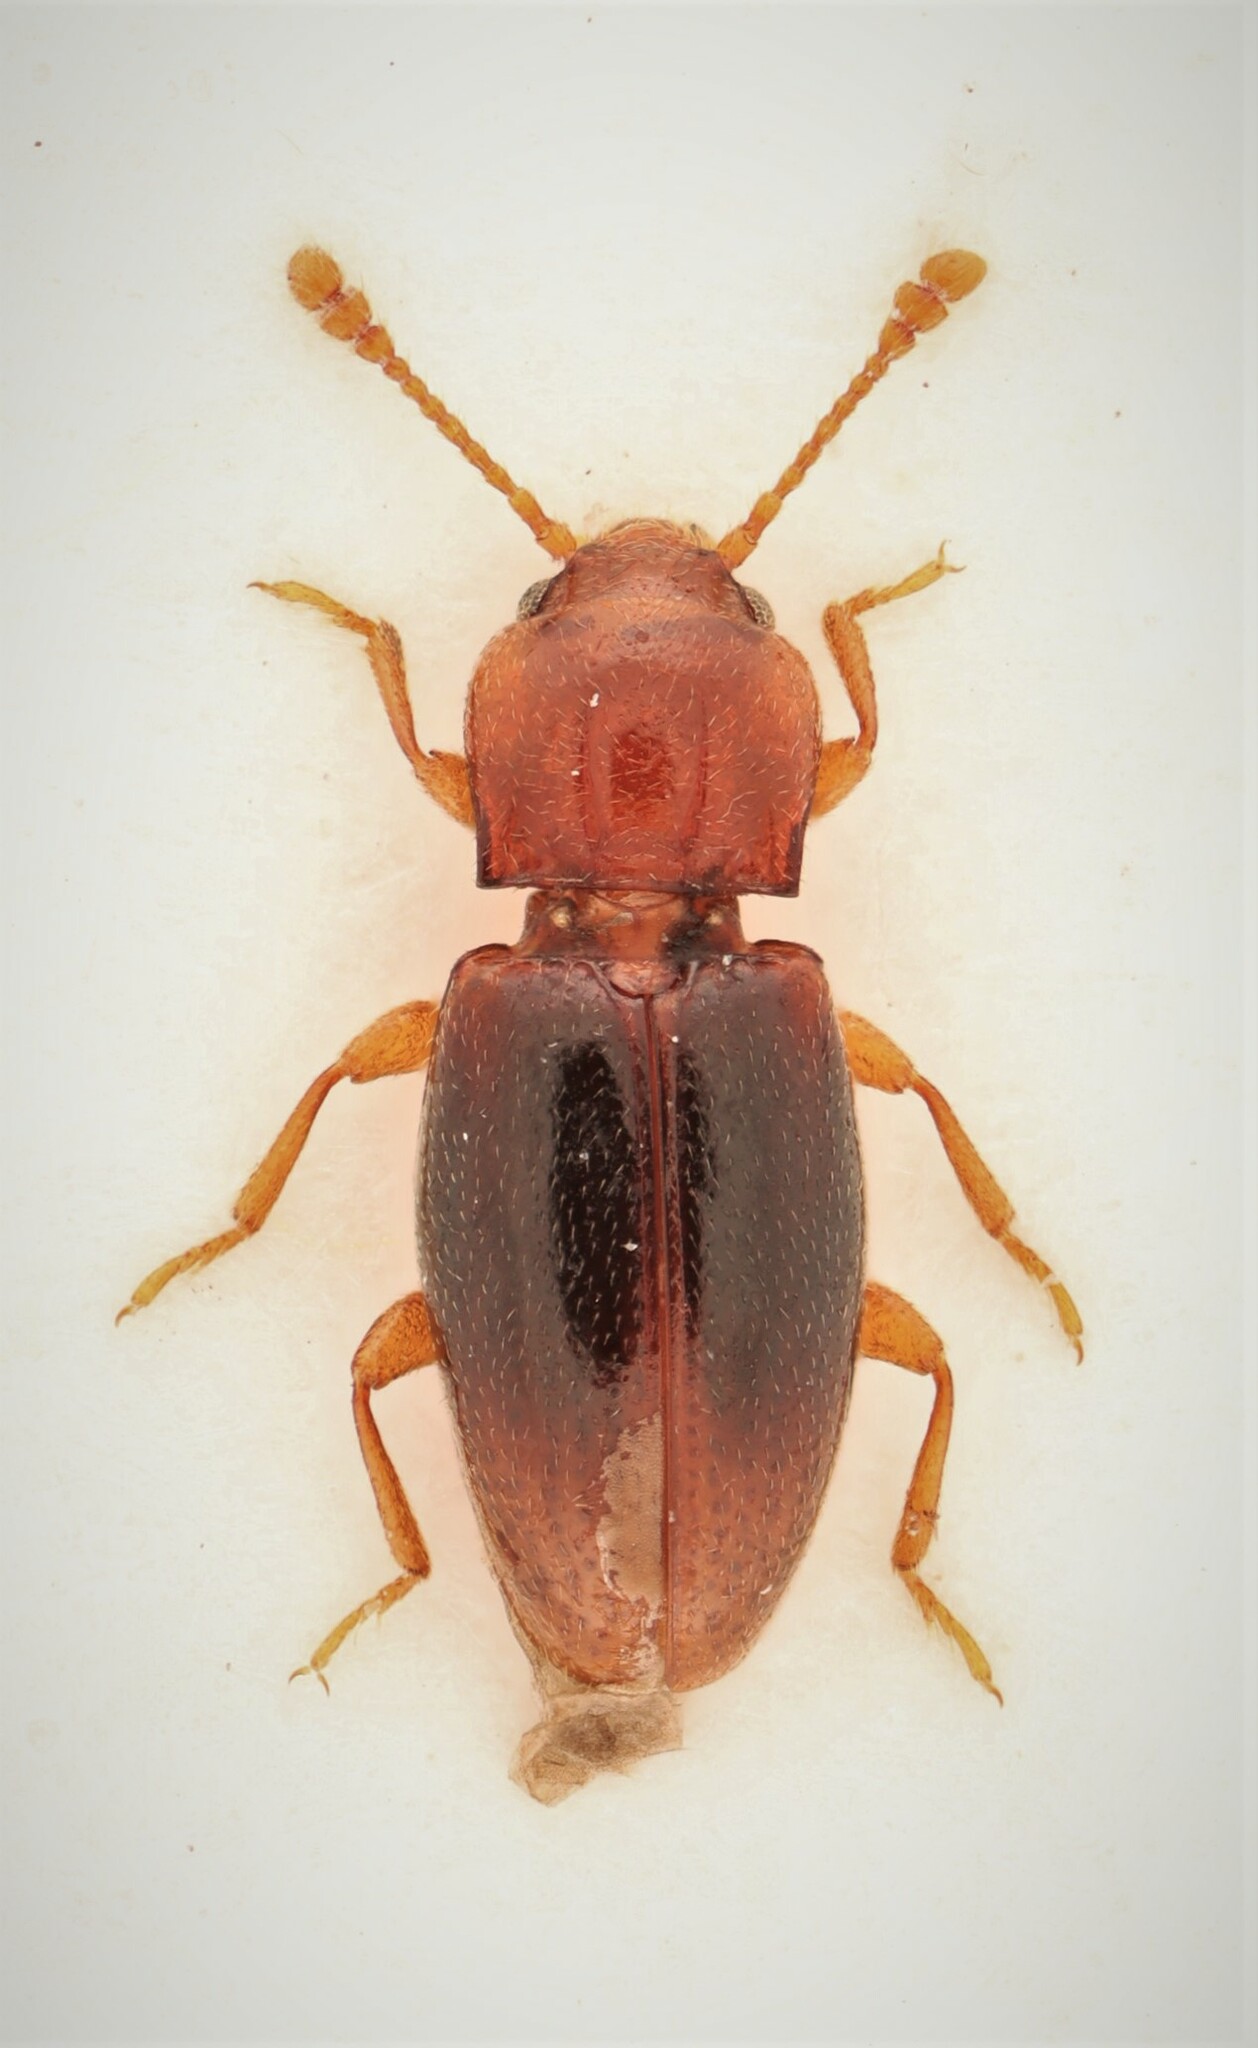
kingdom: Animalia
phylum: Arthropoda
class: Insecta
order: Coleoptera
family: Endomychidae
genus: Rhanidea
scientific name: Rhanidea unicolor
